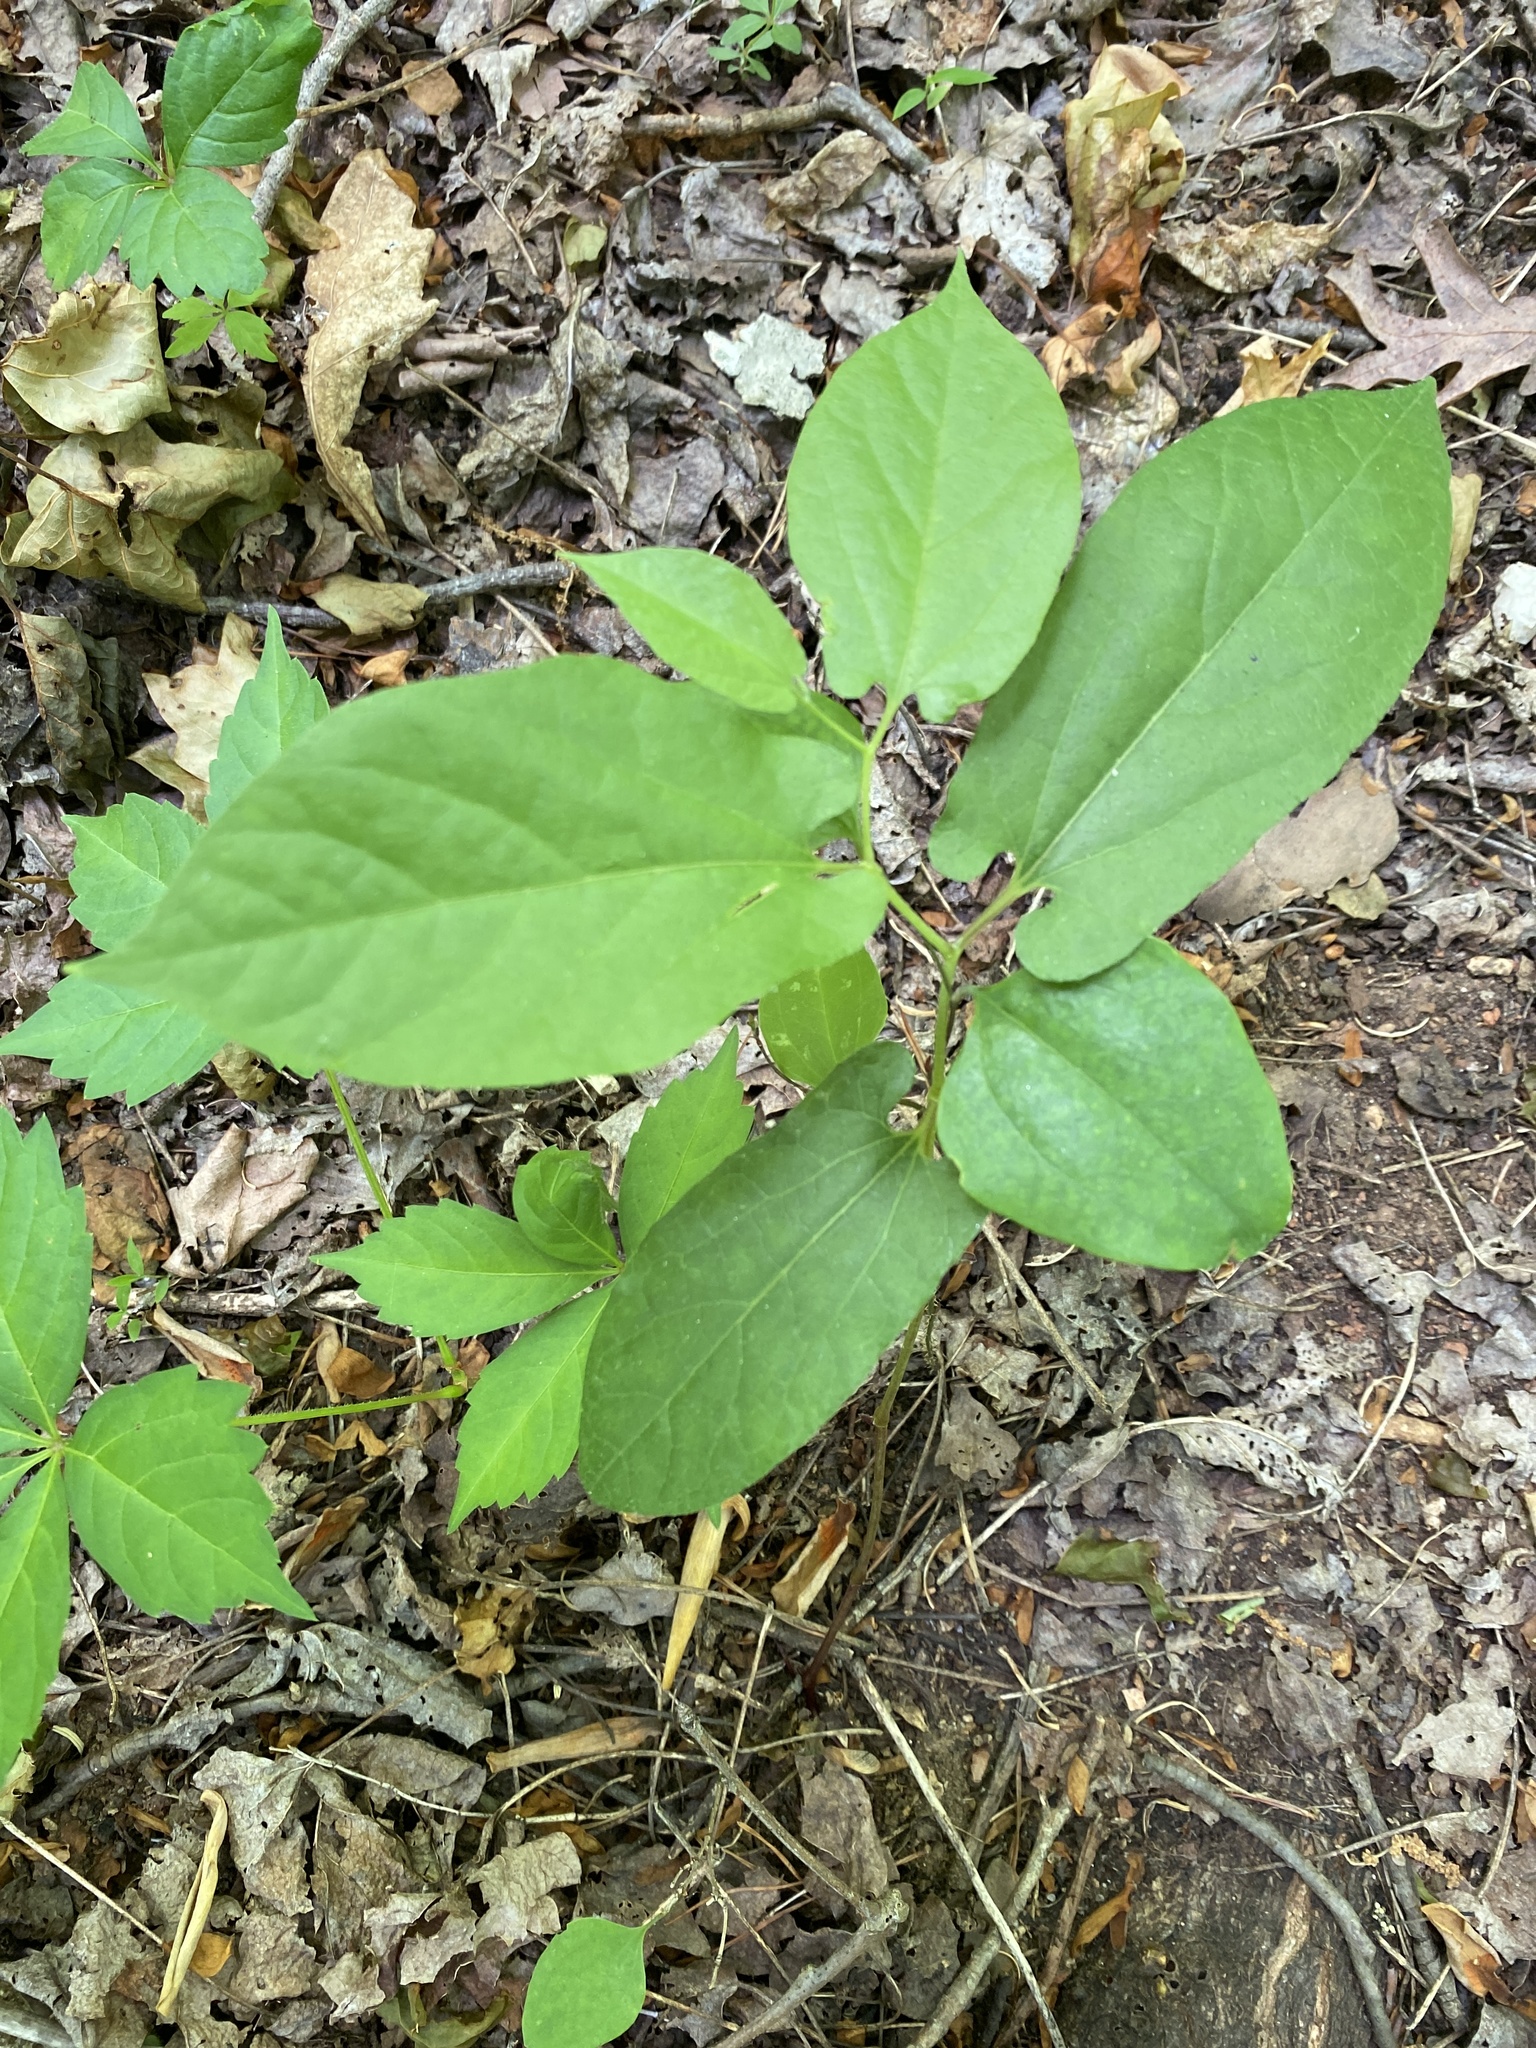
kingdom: Plantae
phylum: Tracheophyta
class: Magnoliopsida
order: Piperales
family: Aristolochiaceae
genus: Endodeca
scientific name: Endodeca serpentaria
